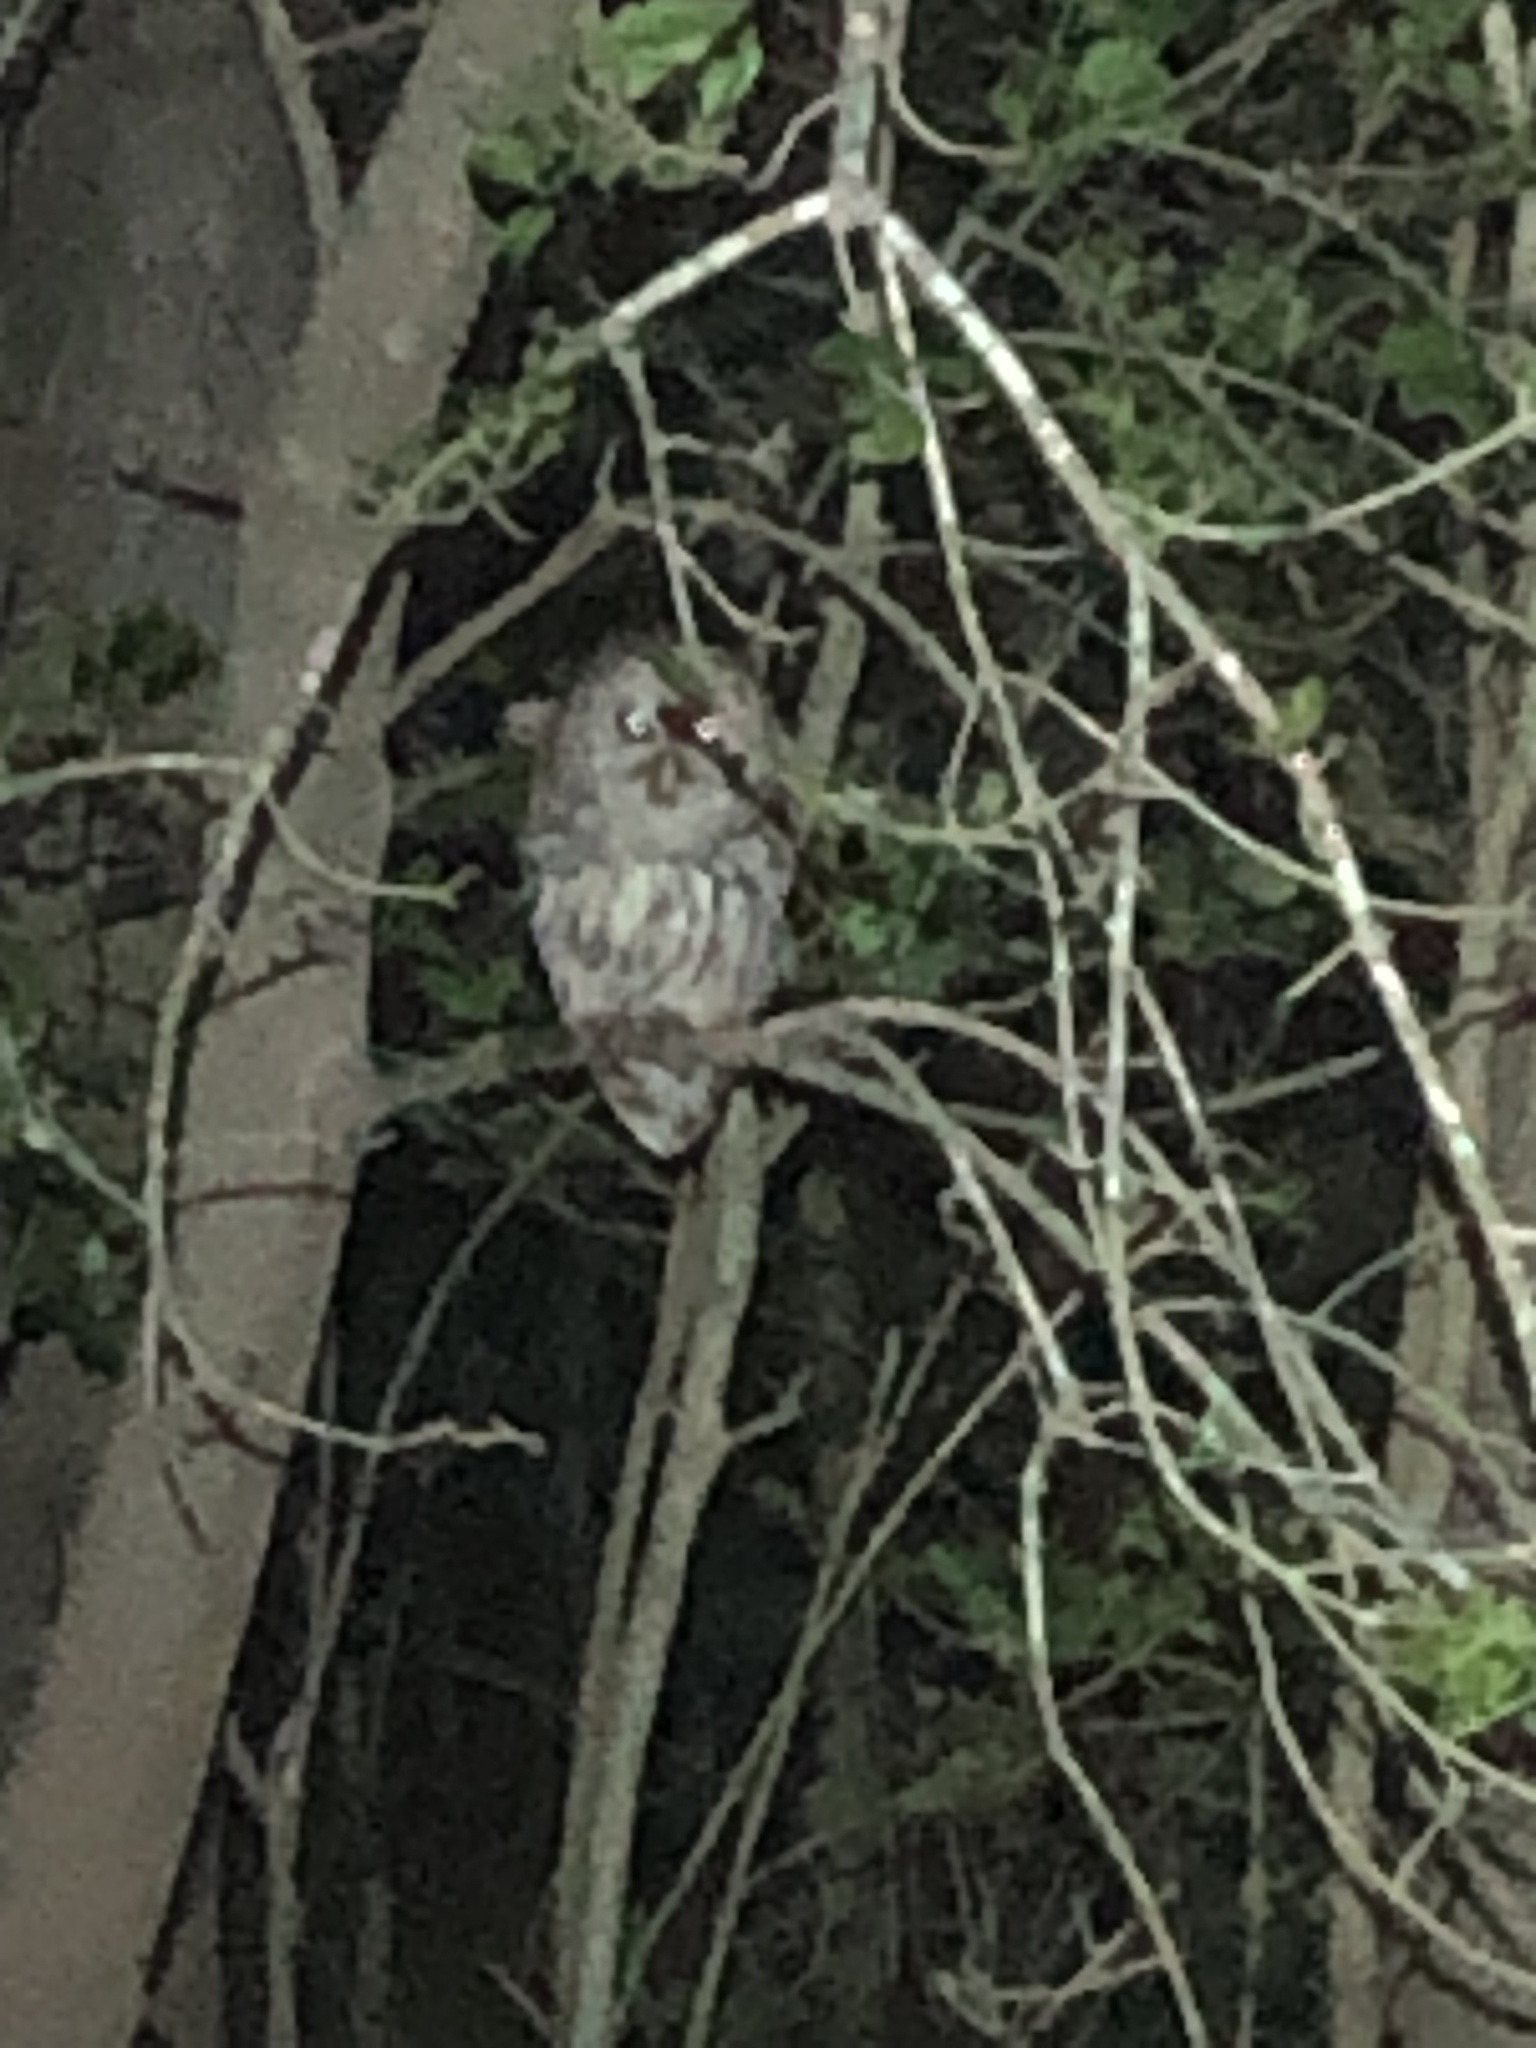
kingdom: Animalia
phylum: Chordata
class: Aves
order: Strigiformes
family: Strigidae
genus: Strix
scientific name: Strix varia
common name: Barred owl
